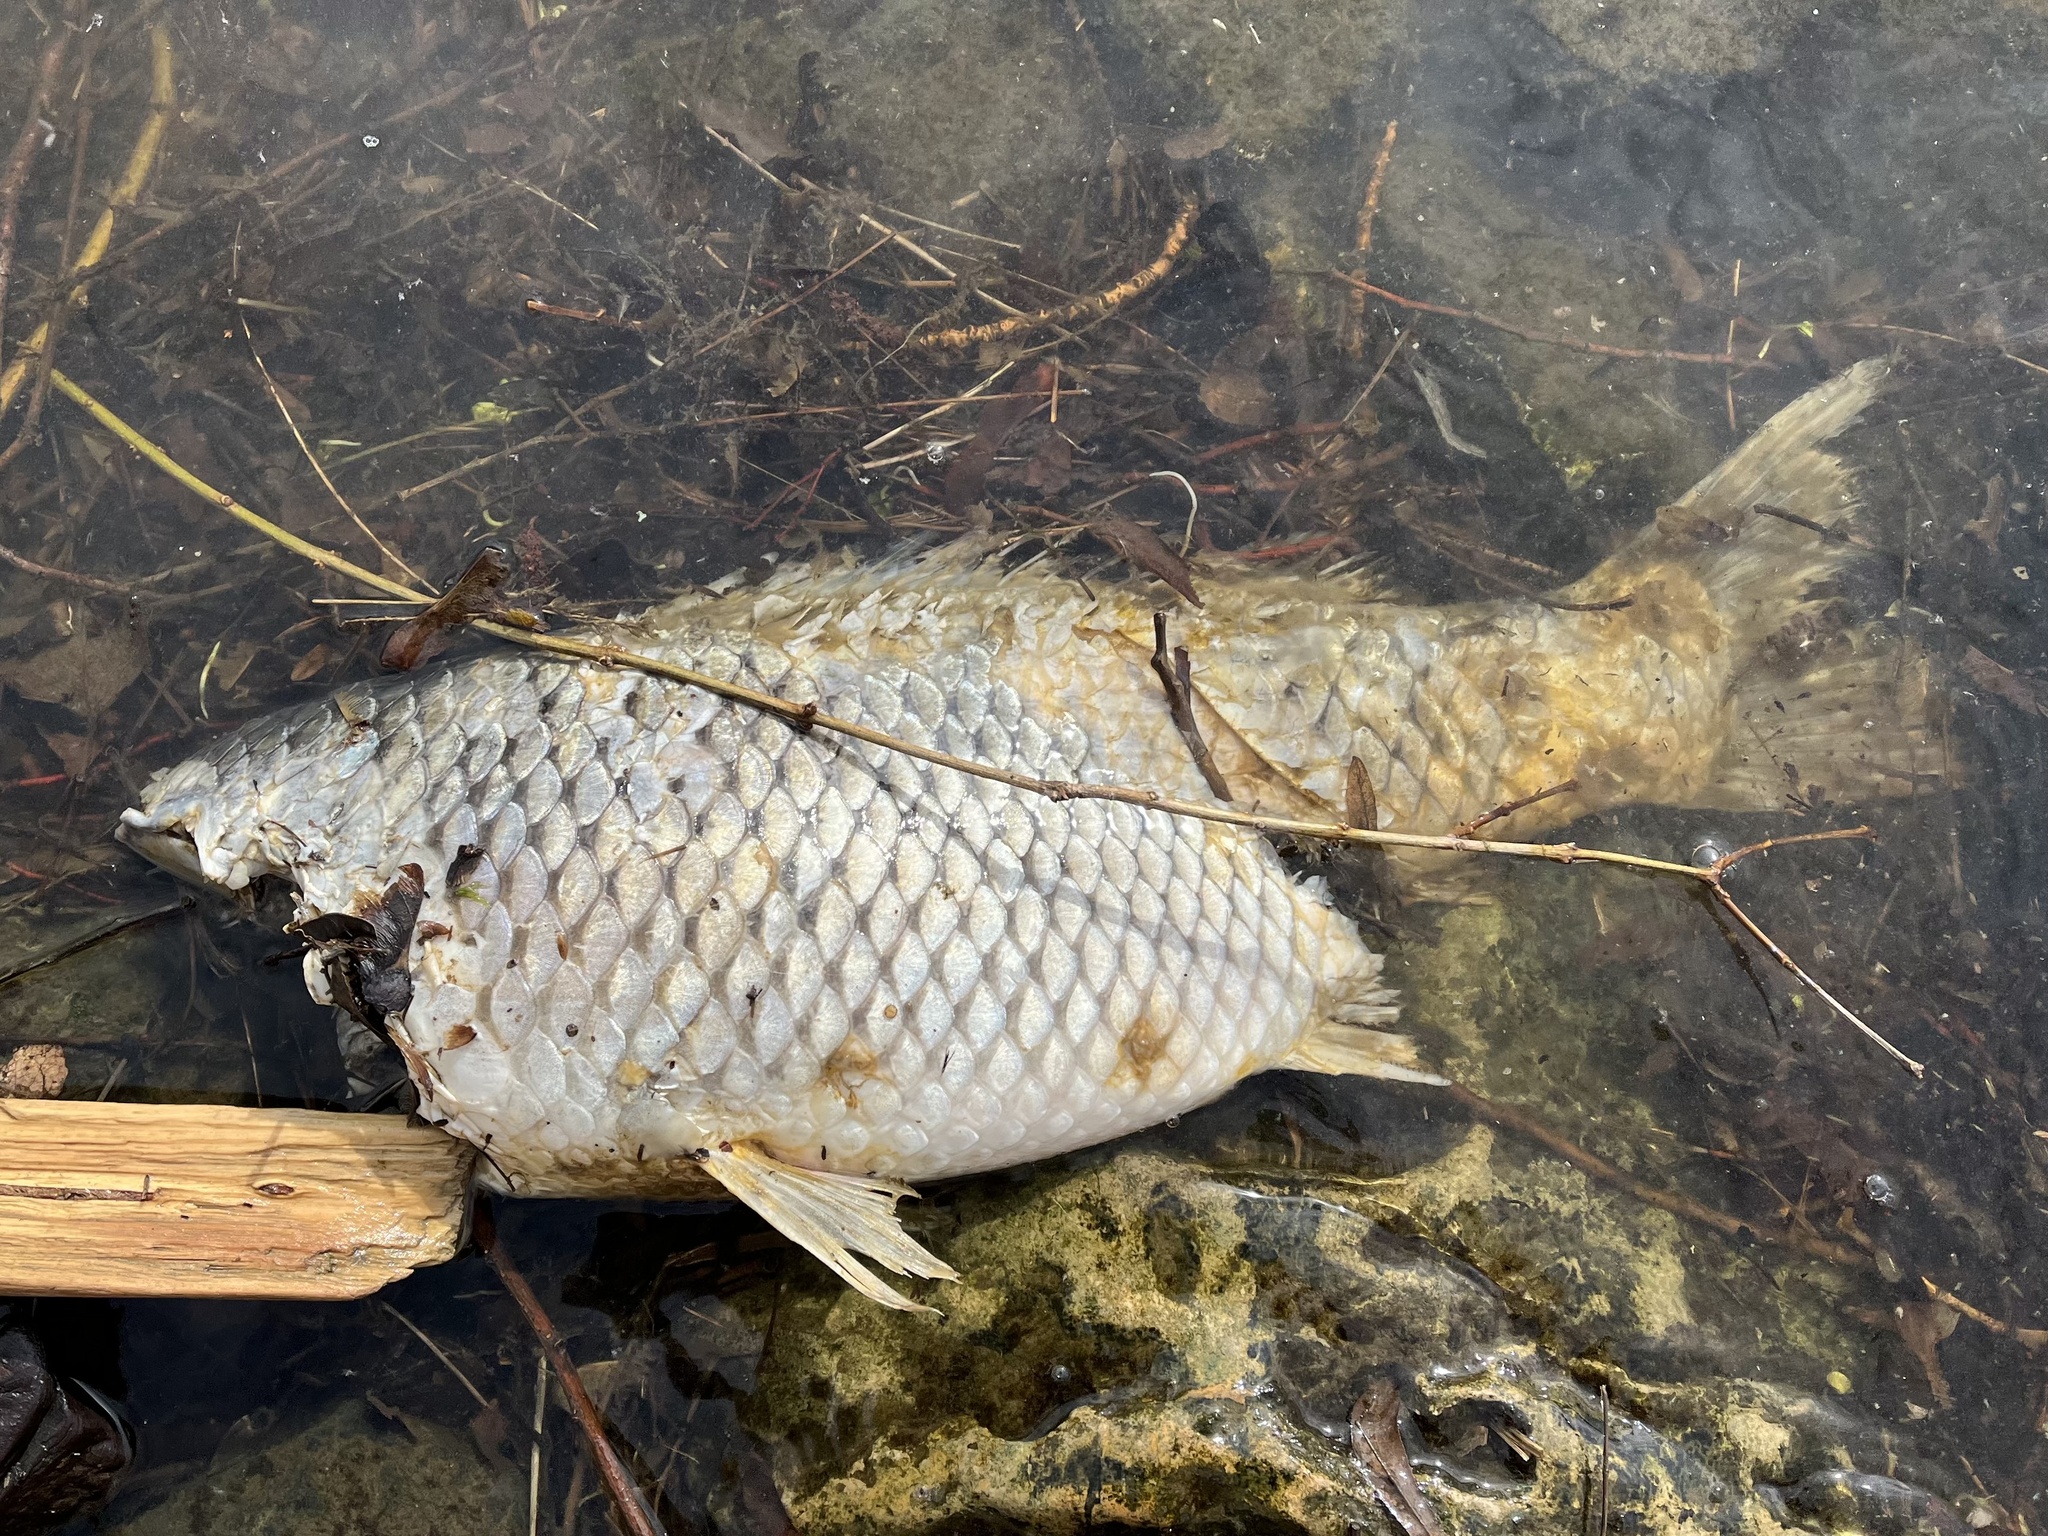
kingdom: Animalia
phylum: Chordata
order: Cypriniformes
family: Cyprinidae
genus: Cyprinus
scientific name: Cyprinus carpio
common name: Common carp
